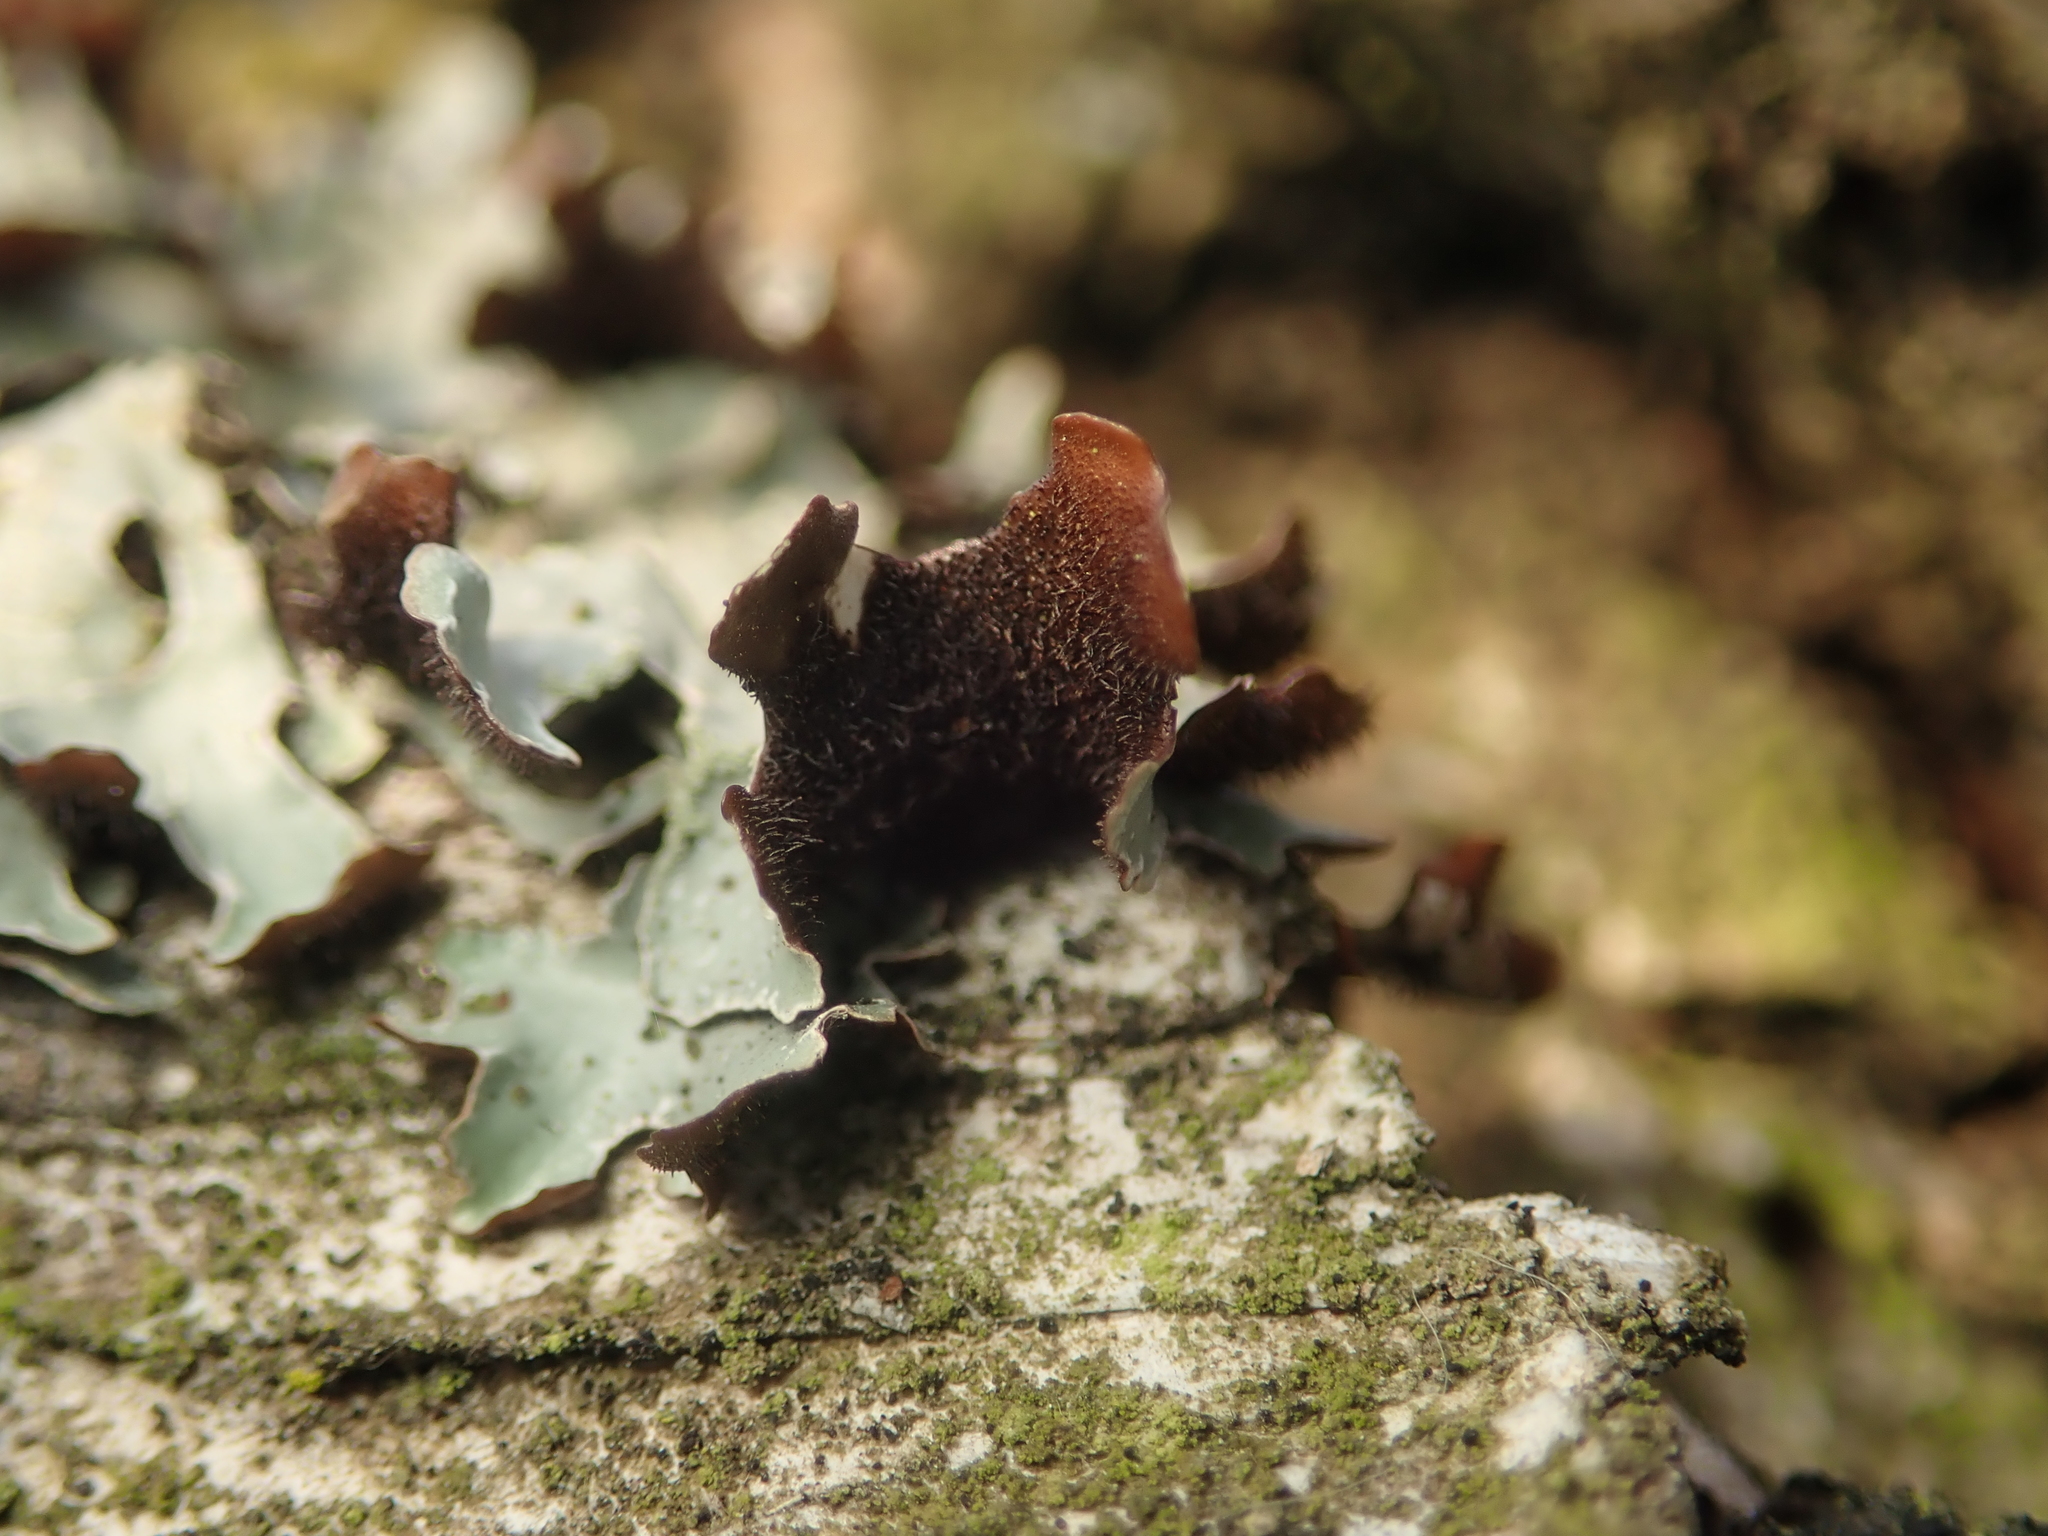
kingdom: Fungi
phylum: Ascomycota
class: Lecanoromycetes
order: Lecanorales
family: Parmeliaceae
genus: Parmelia
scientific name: Parmelia sulcata
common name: Netted shield lichen
